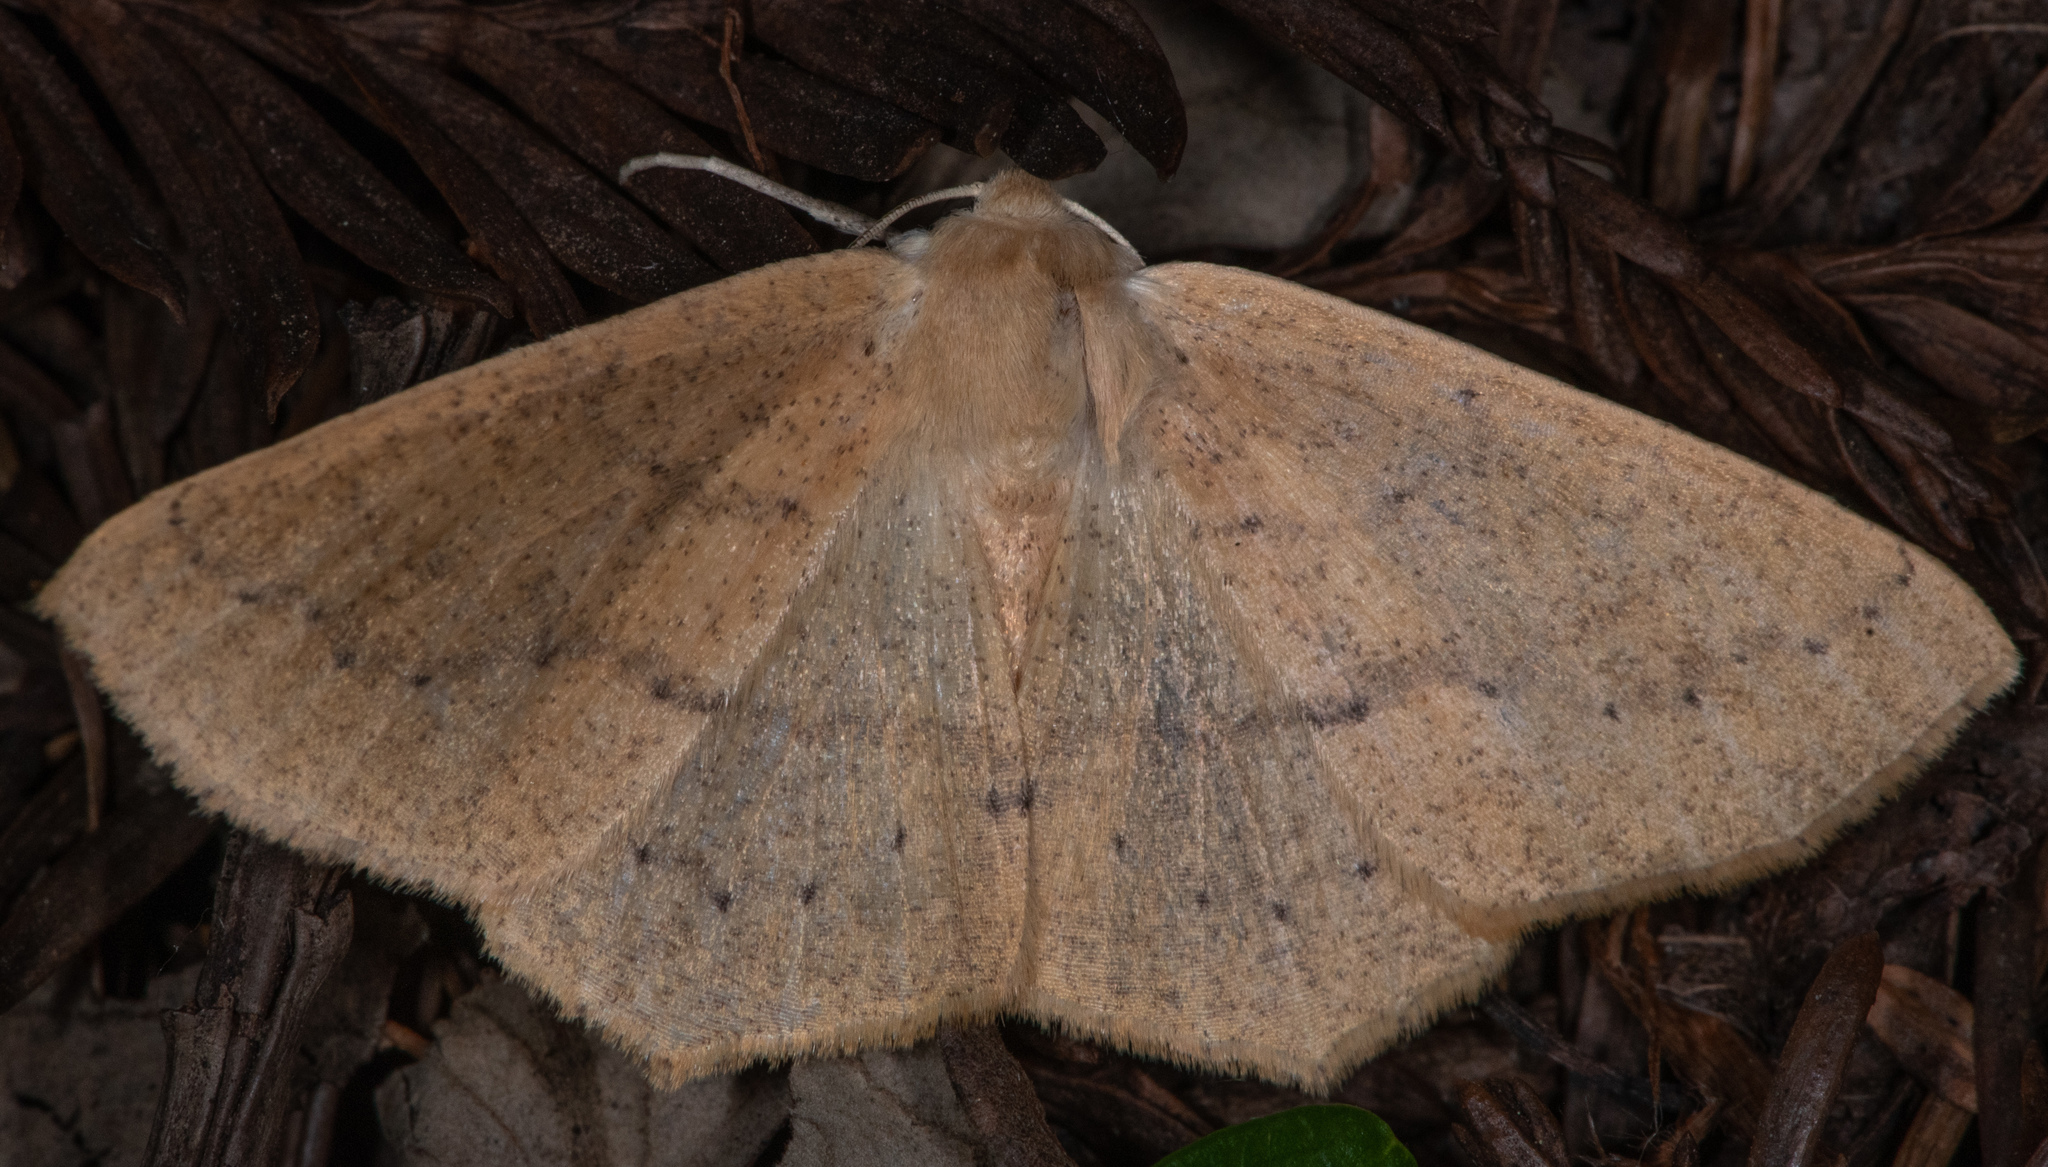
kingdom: Animalia
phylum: Arthropoda
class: Insecta
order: Lepidoptera
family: Geometridae
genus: Sabulodes
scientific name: Sabulodes aegrotata
